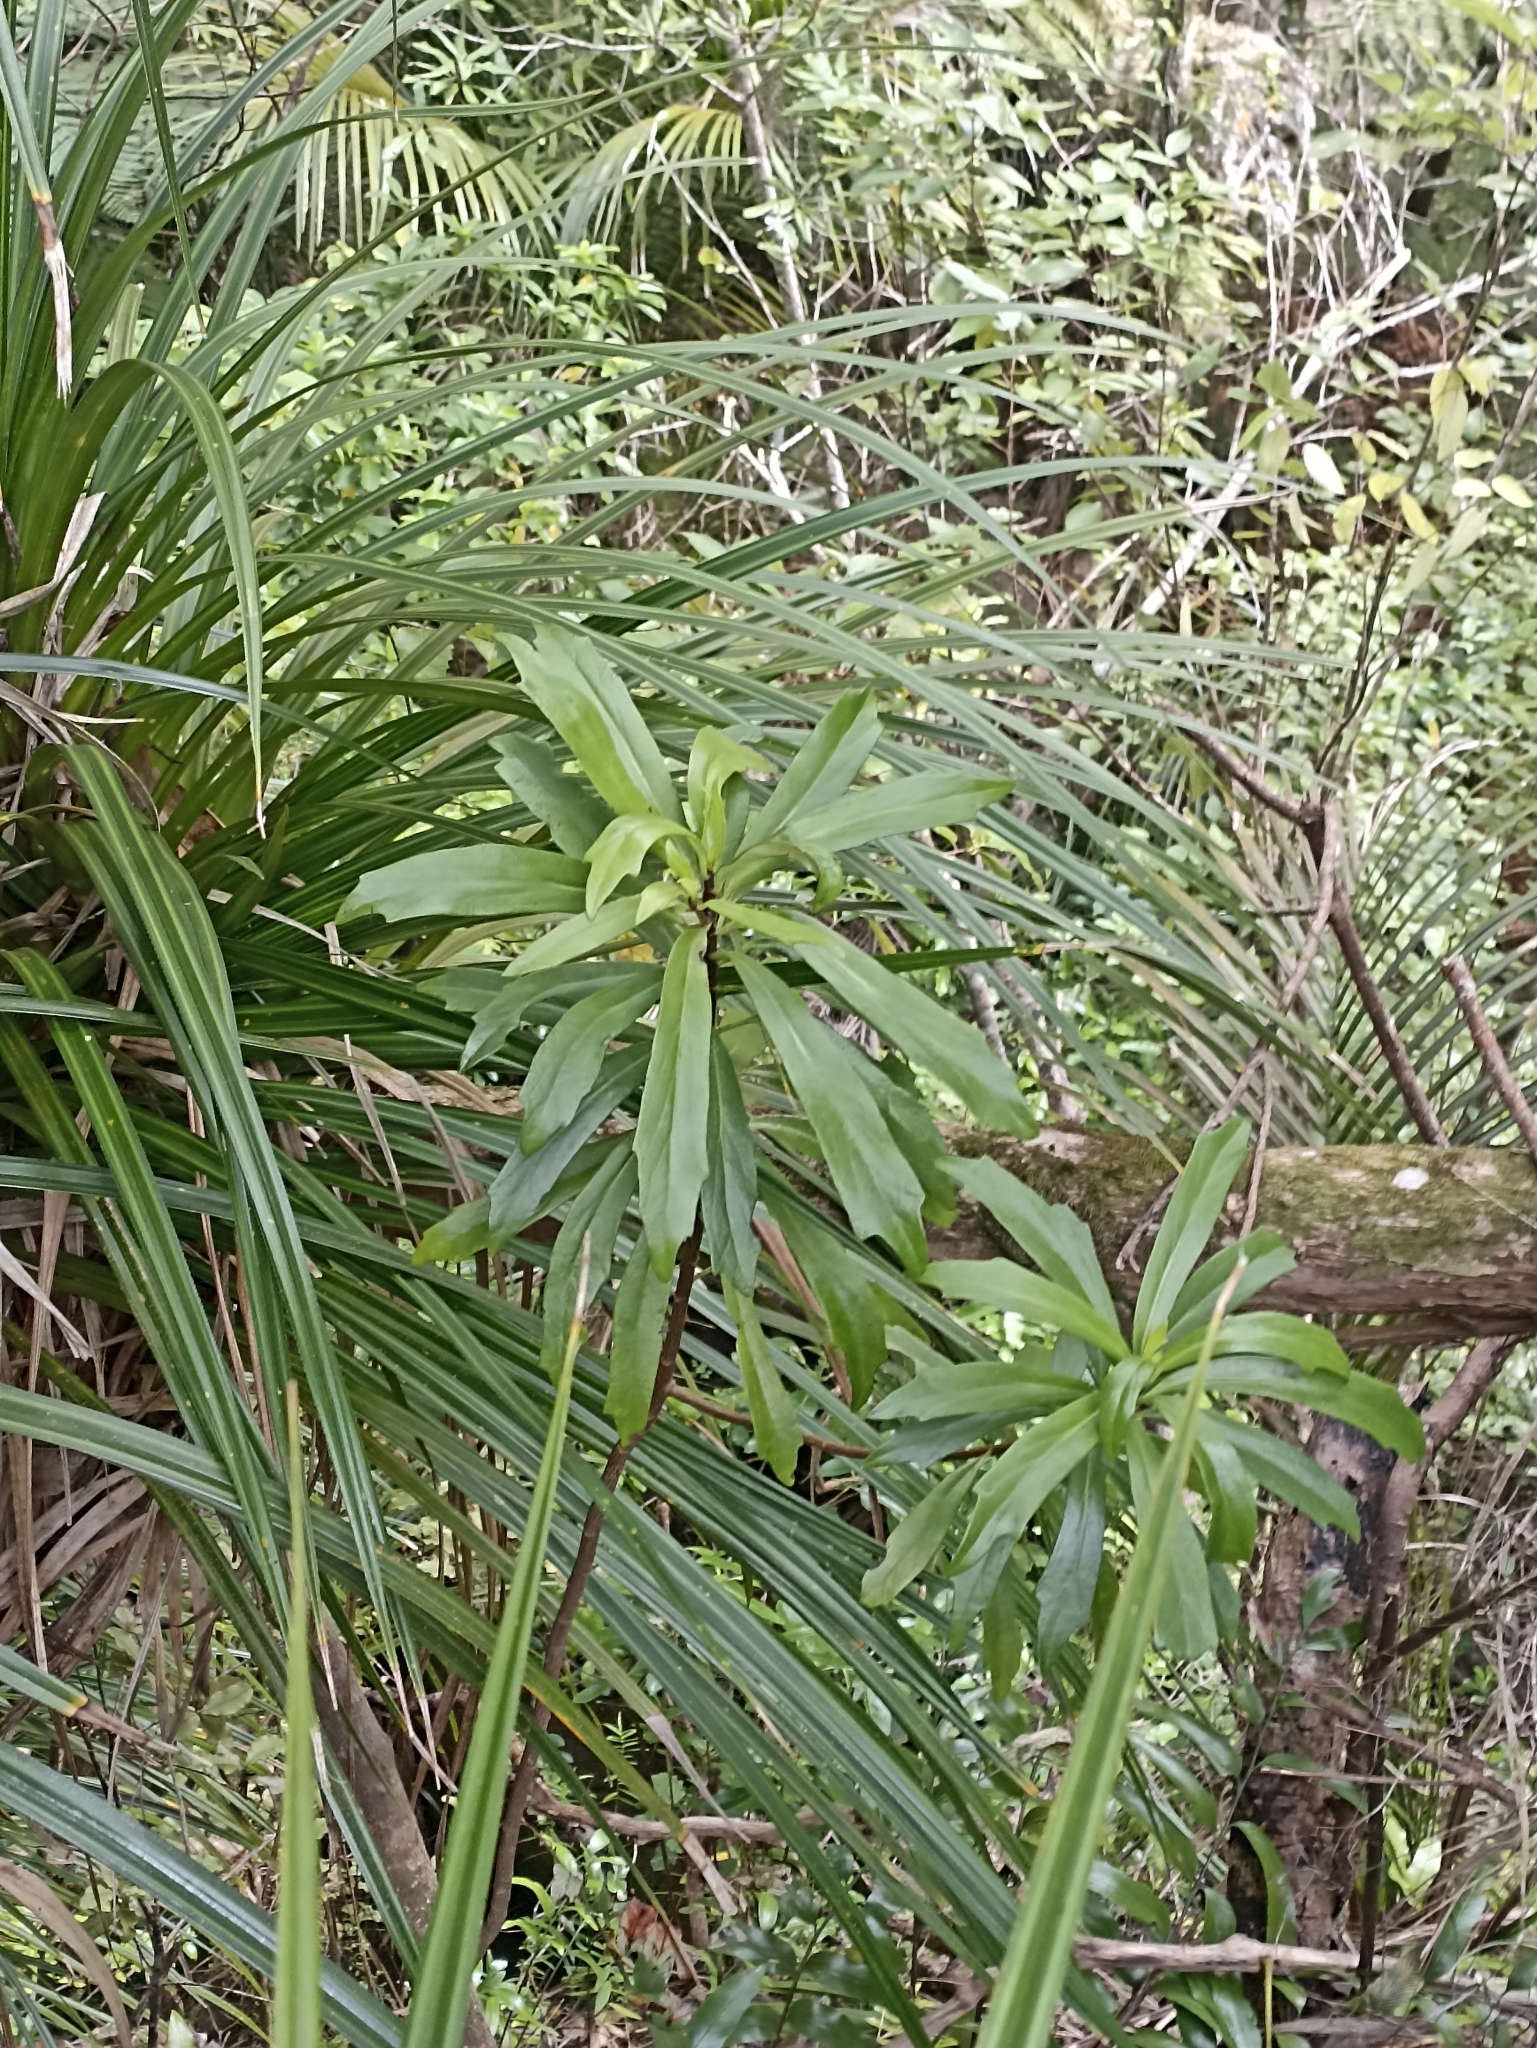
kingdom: Plantae
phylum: Tracheophyta
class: Magnoliopsida
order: Asterales
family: Asteraceae
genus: Brachyglottis
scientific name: Brachyglottis kirkii
